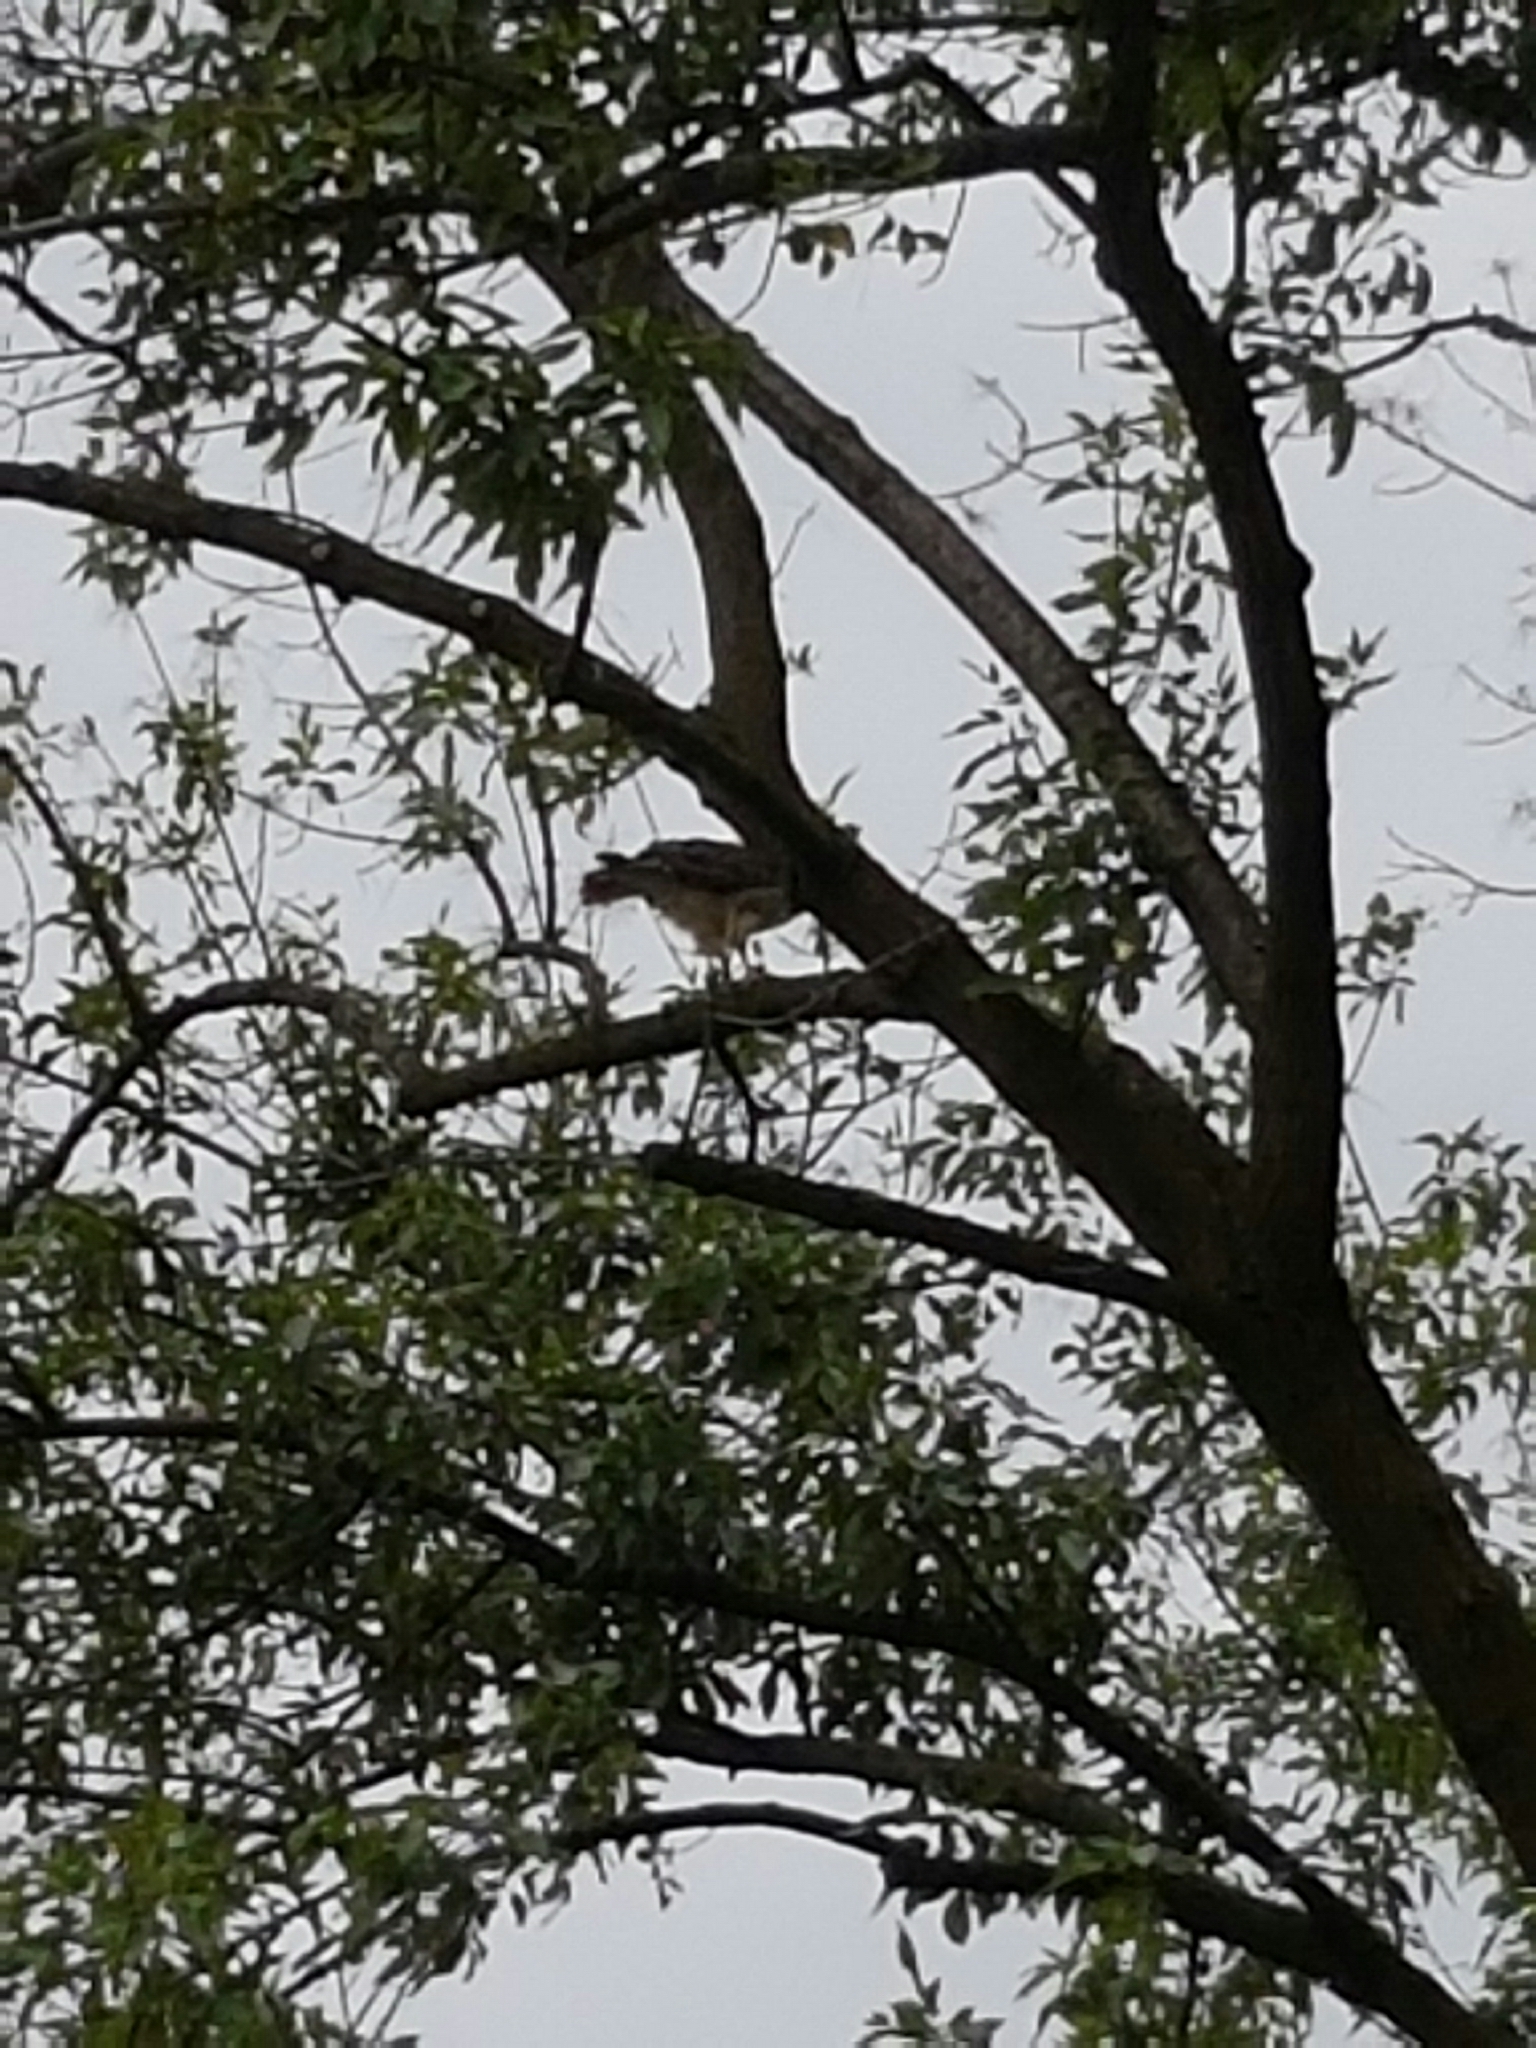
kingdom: Animalia
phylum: Chordata
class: Aves
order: Accipitriformes
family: Accipitridae
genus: Buteo
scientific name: Buteo jamaicensis
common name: Red-tailed hawk
